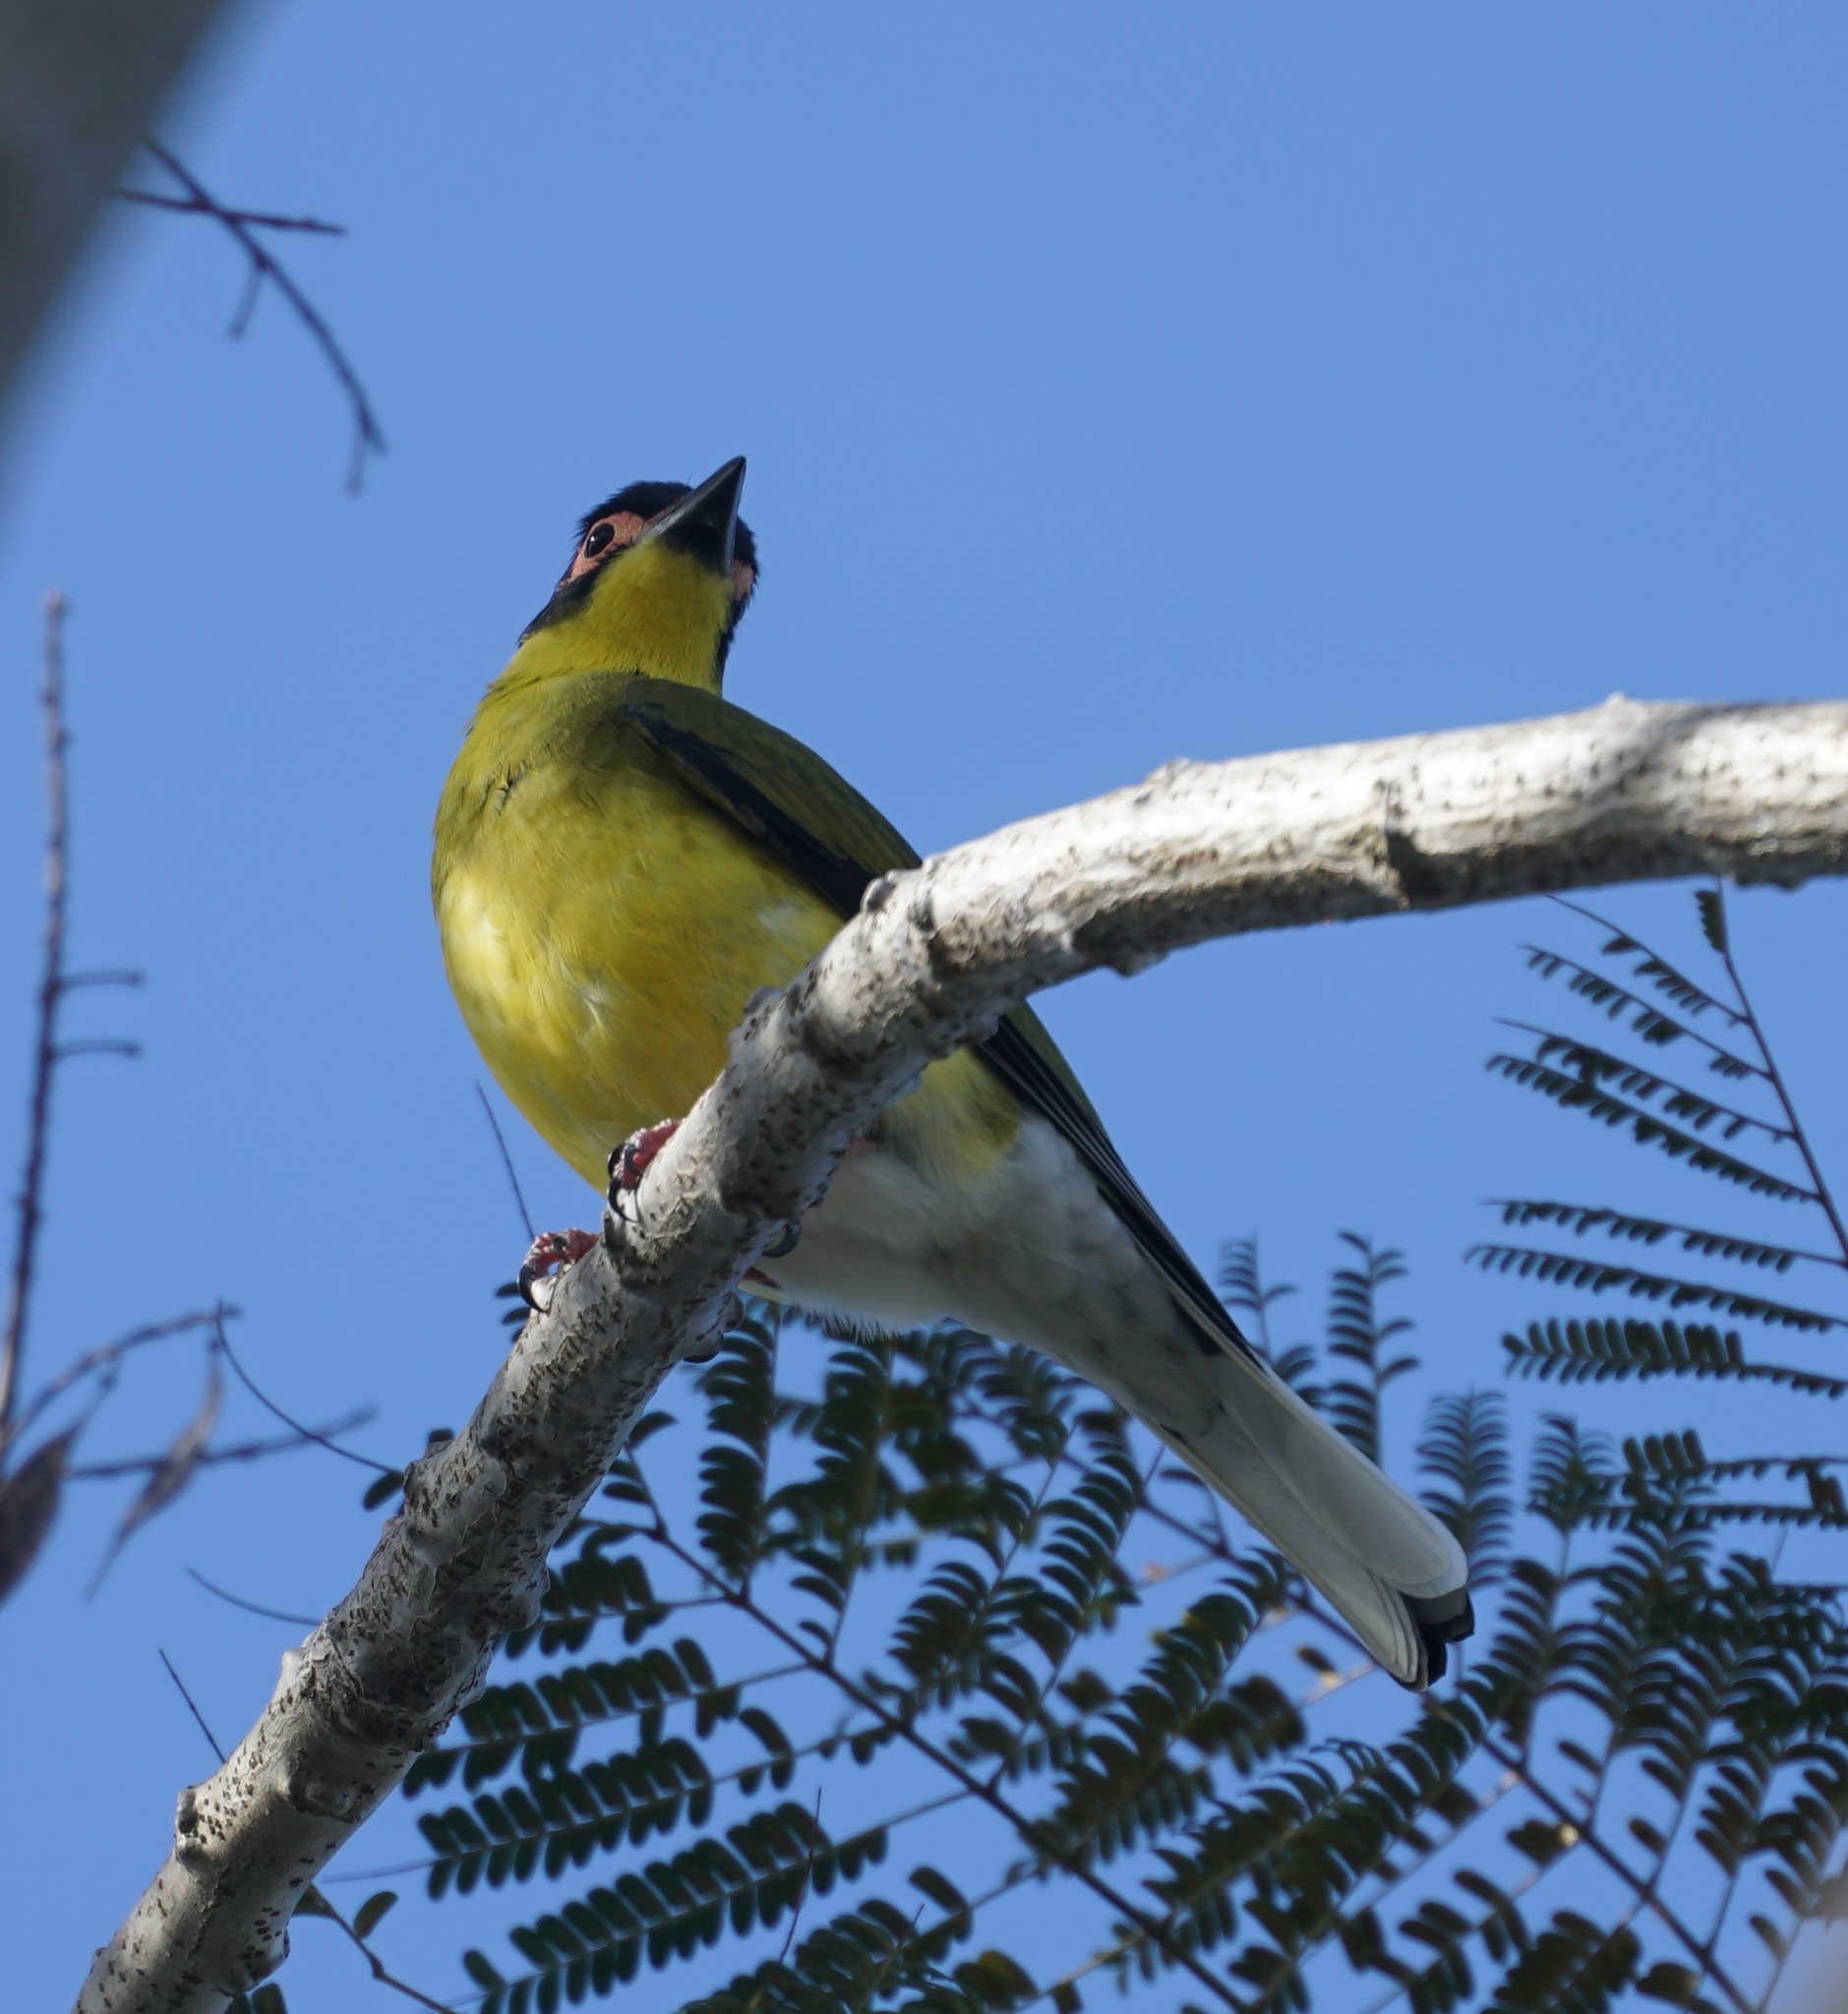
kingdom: Animalia
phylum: Chordata
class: Aves
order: Passeriformes
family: Oriolidae
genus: Sphecotheres
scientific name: Sphecotheres vieilloti
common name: Australasian figbird
